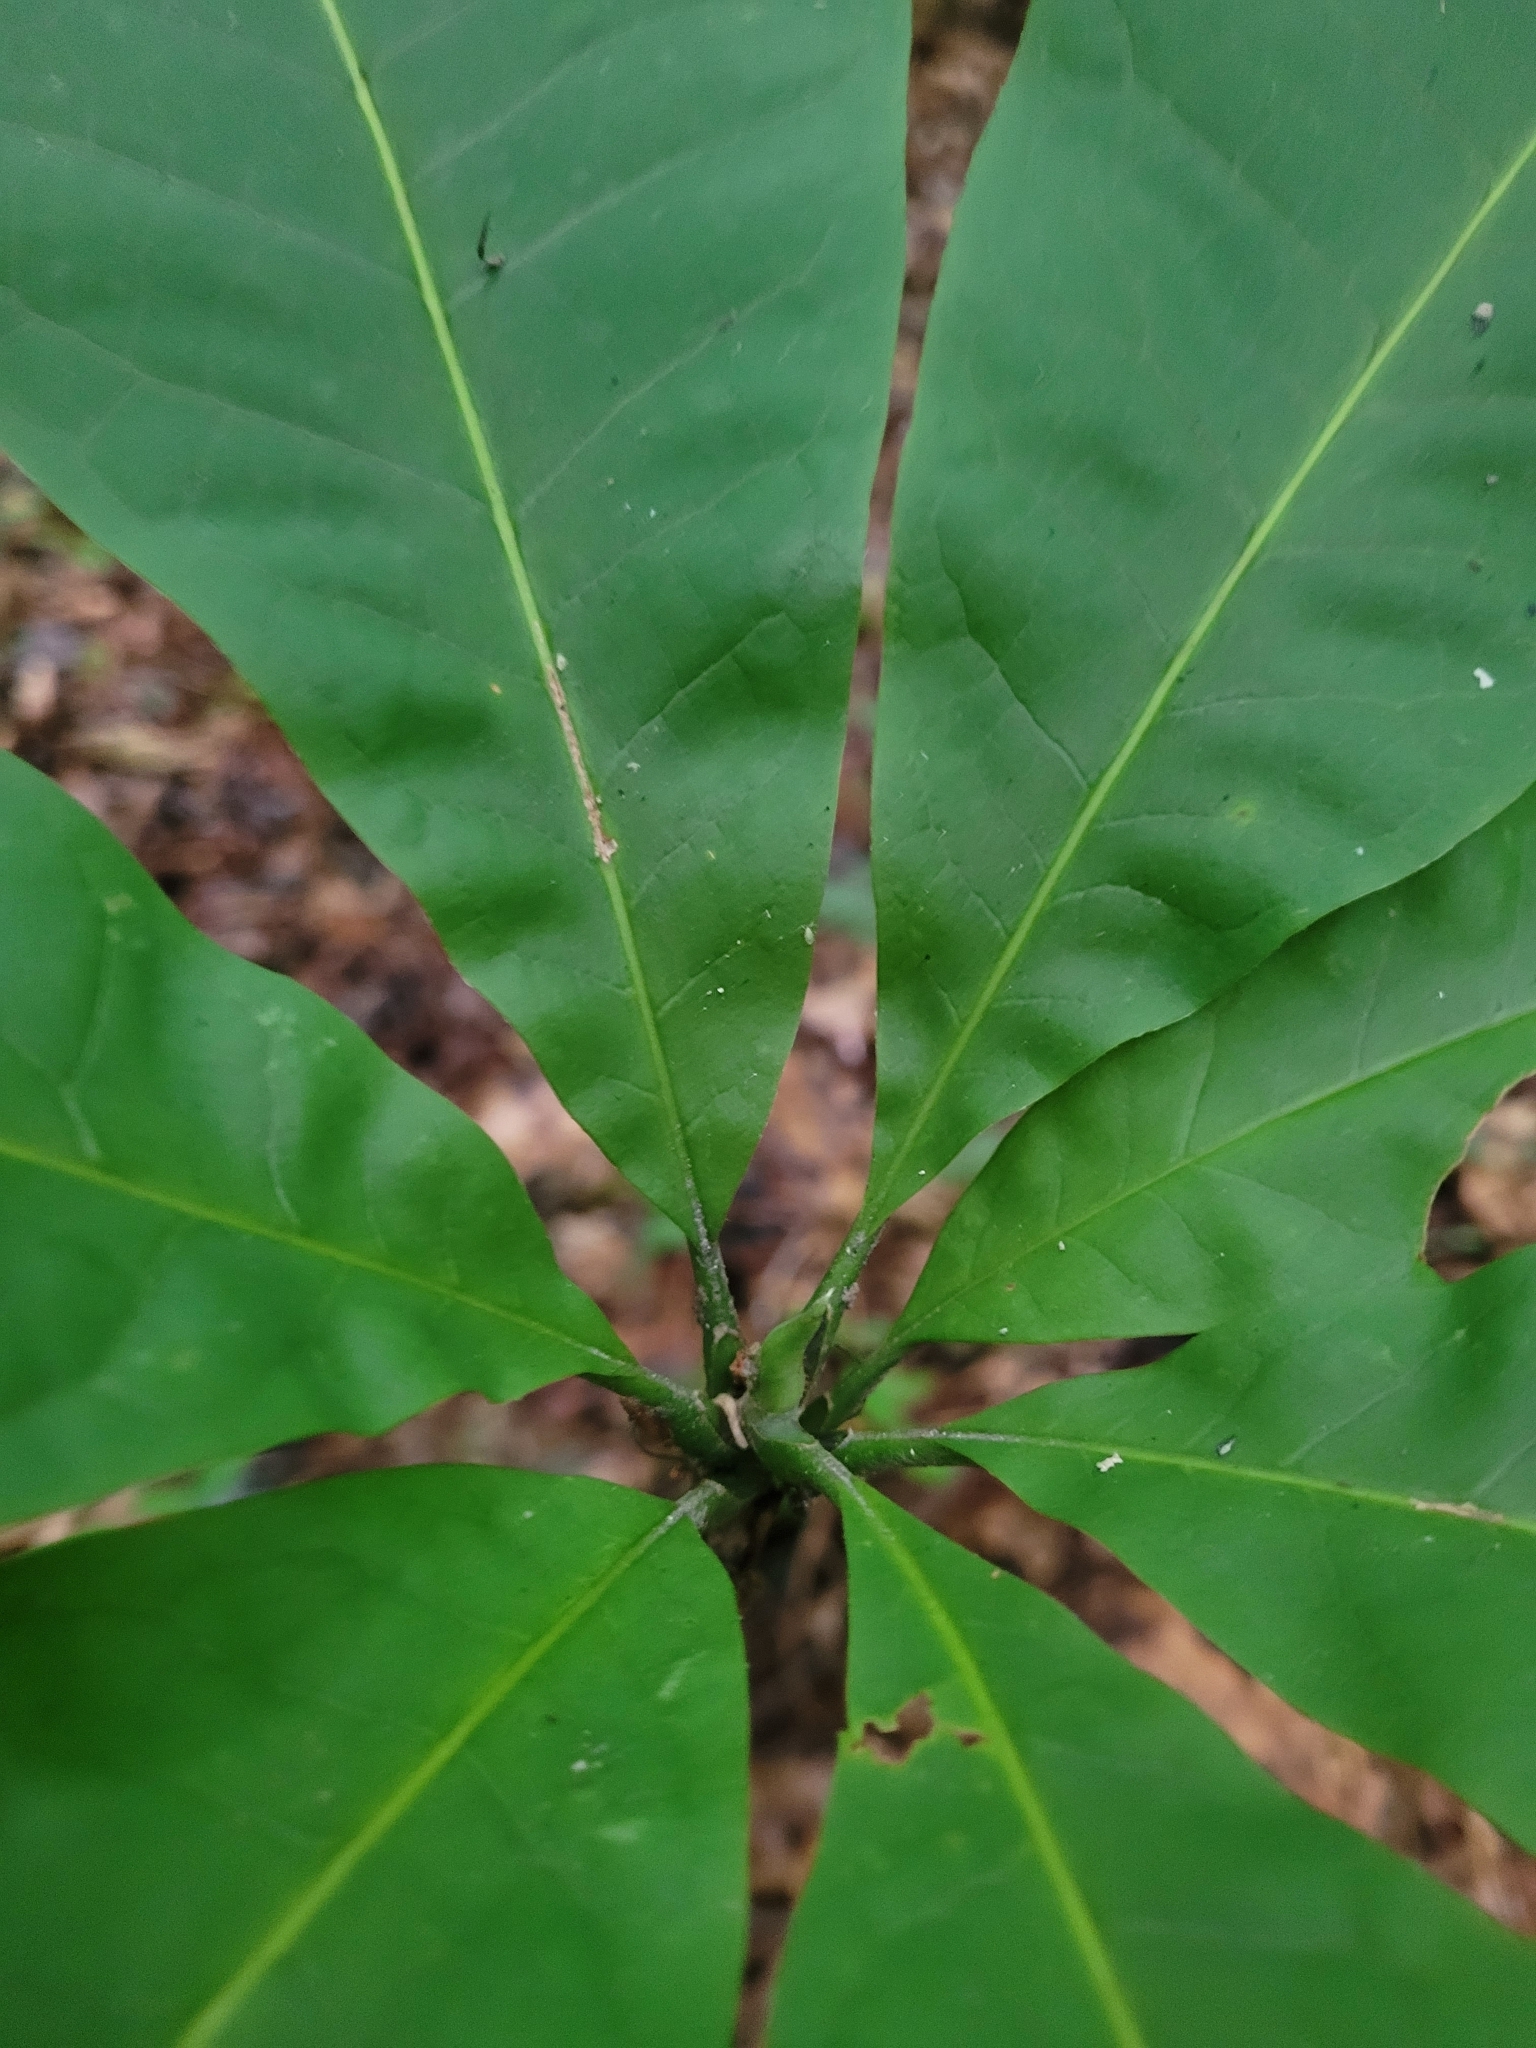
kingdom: Plantae
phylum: Tracheophyta
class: Magnoliopsida
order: Magnoliales
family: Magnoliaceae
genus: Magnolia
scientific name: Magnolia tripetala
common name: Umbrella magnolia
